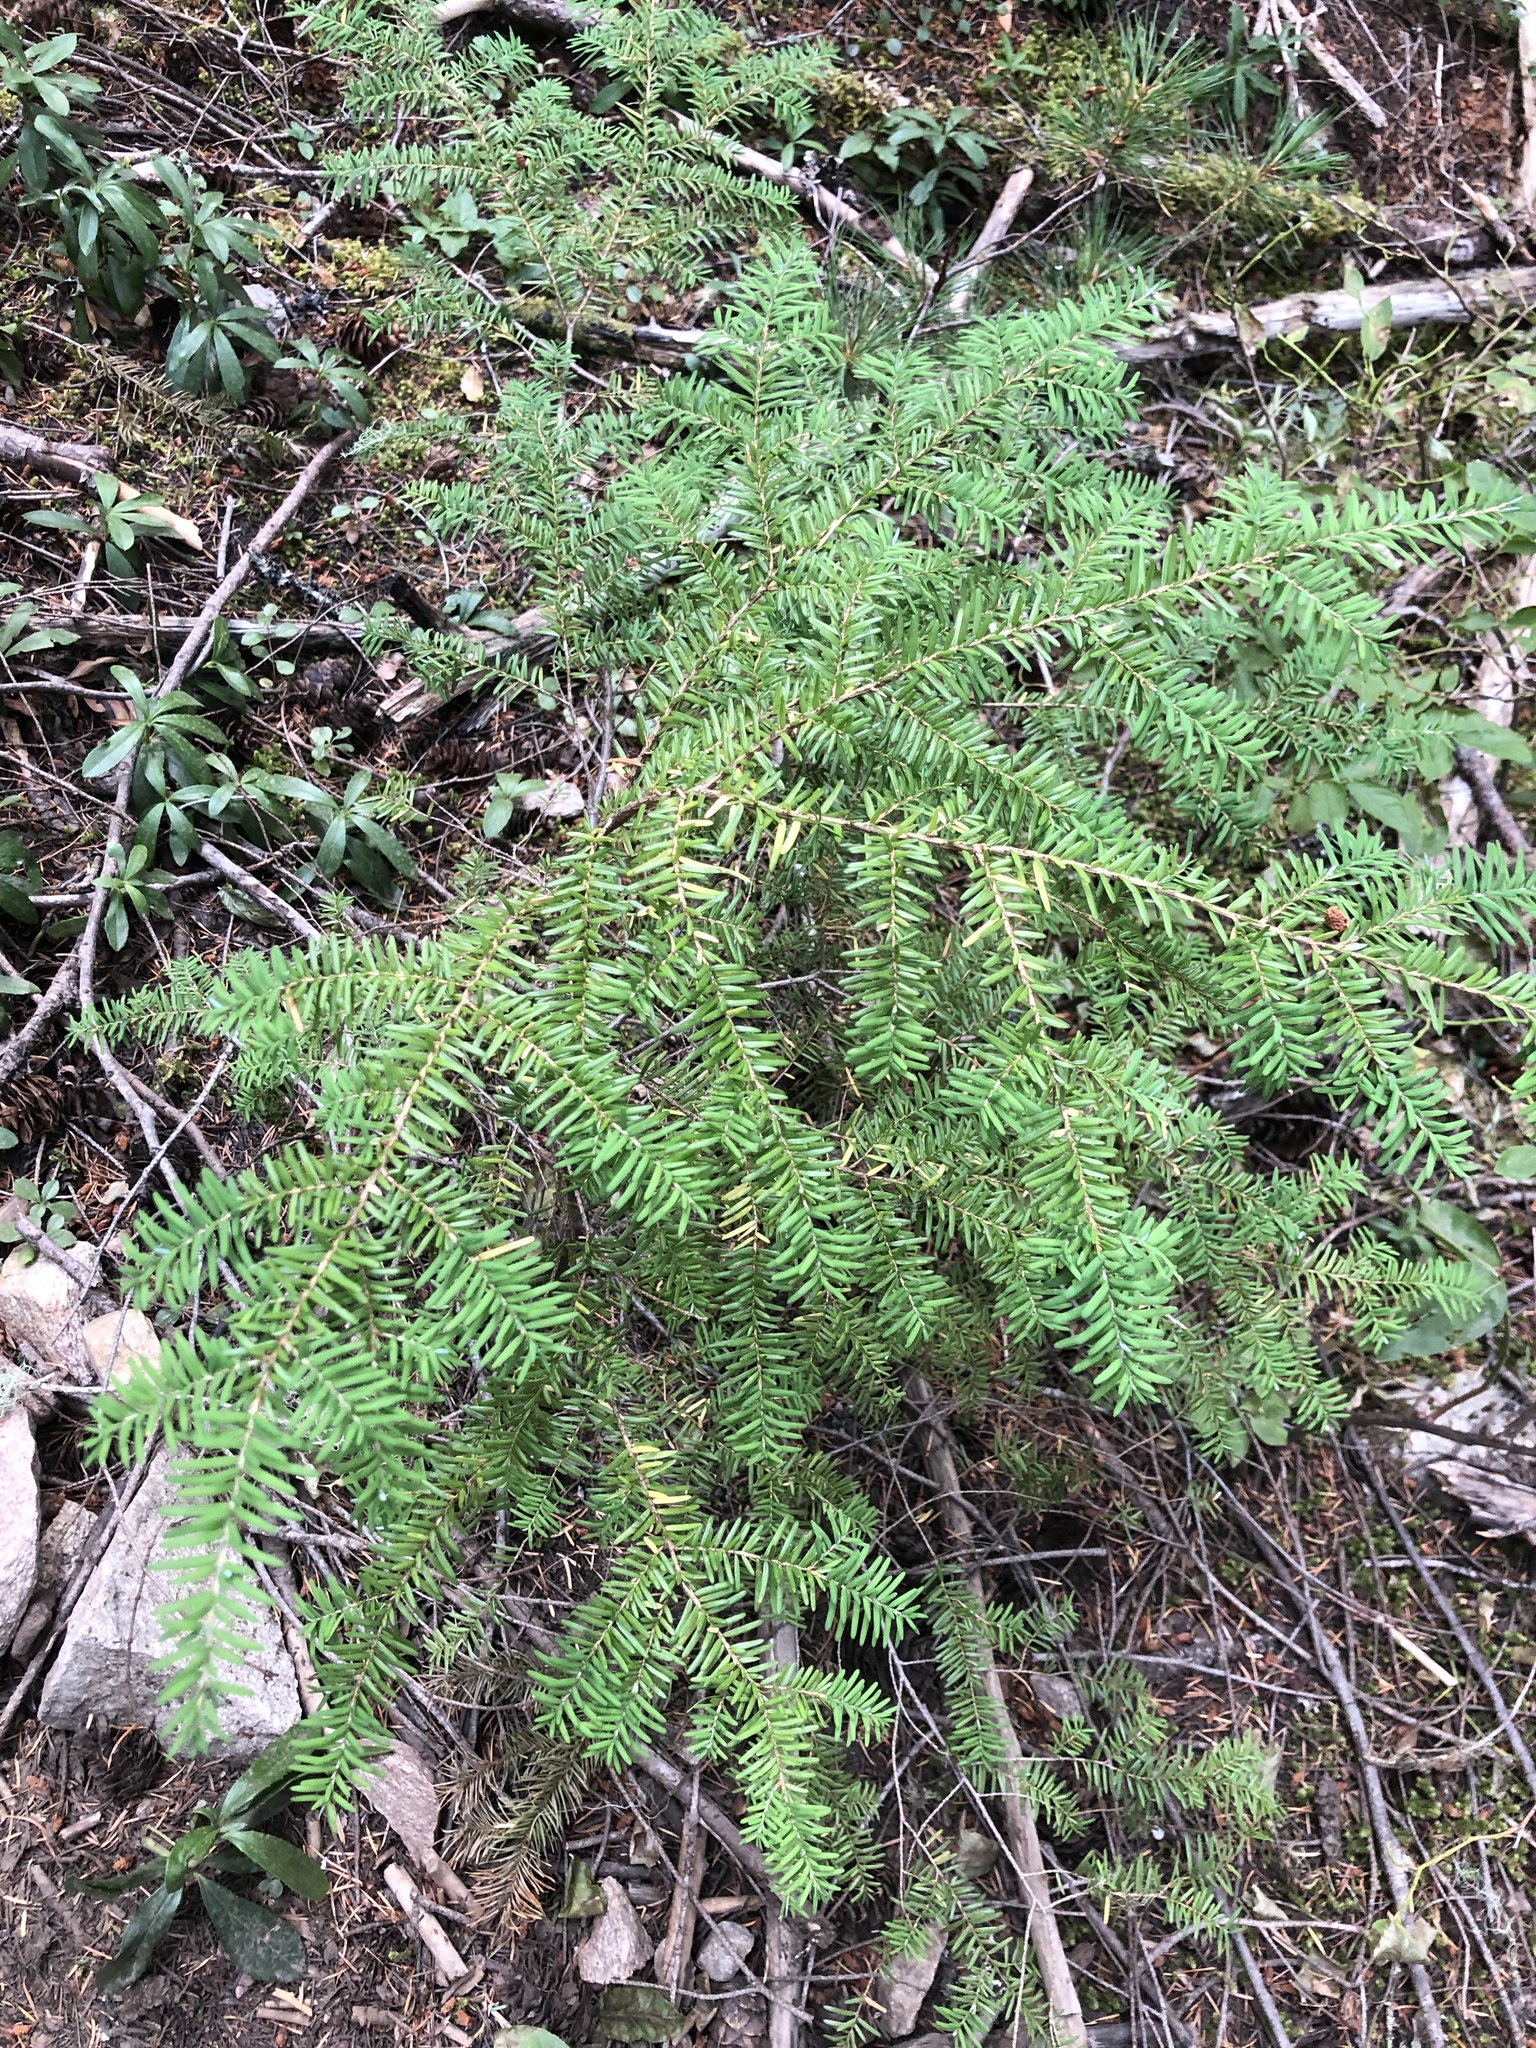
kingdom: Plantae
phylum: Tracheophyta
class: Pinopsida
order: Pinales
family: Pinaceae
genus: Tsuga
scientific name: Tsuga heterophylla
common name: Western hemlock
